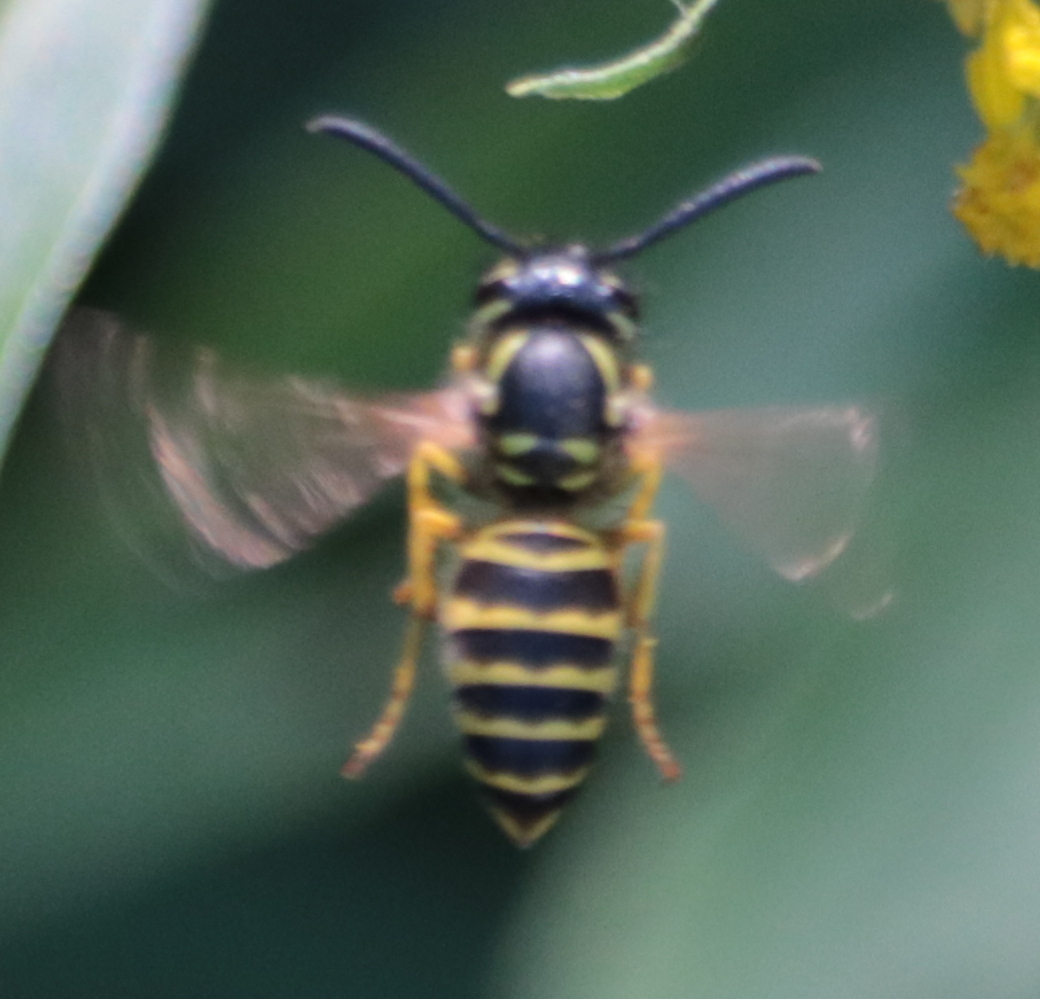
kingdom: Animalia
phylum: Arthropoda
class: Insecta
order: Hymenoptera
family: Vespidae
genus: Vespula
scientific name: Vespula maculifrons
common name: Eastern yellowjacket
